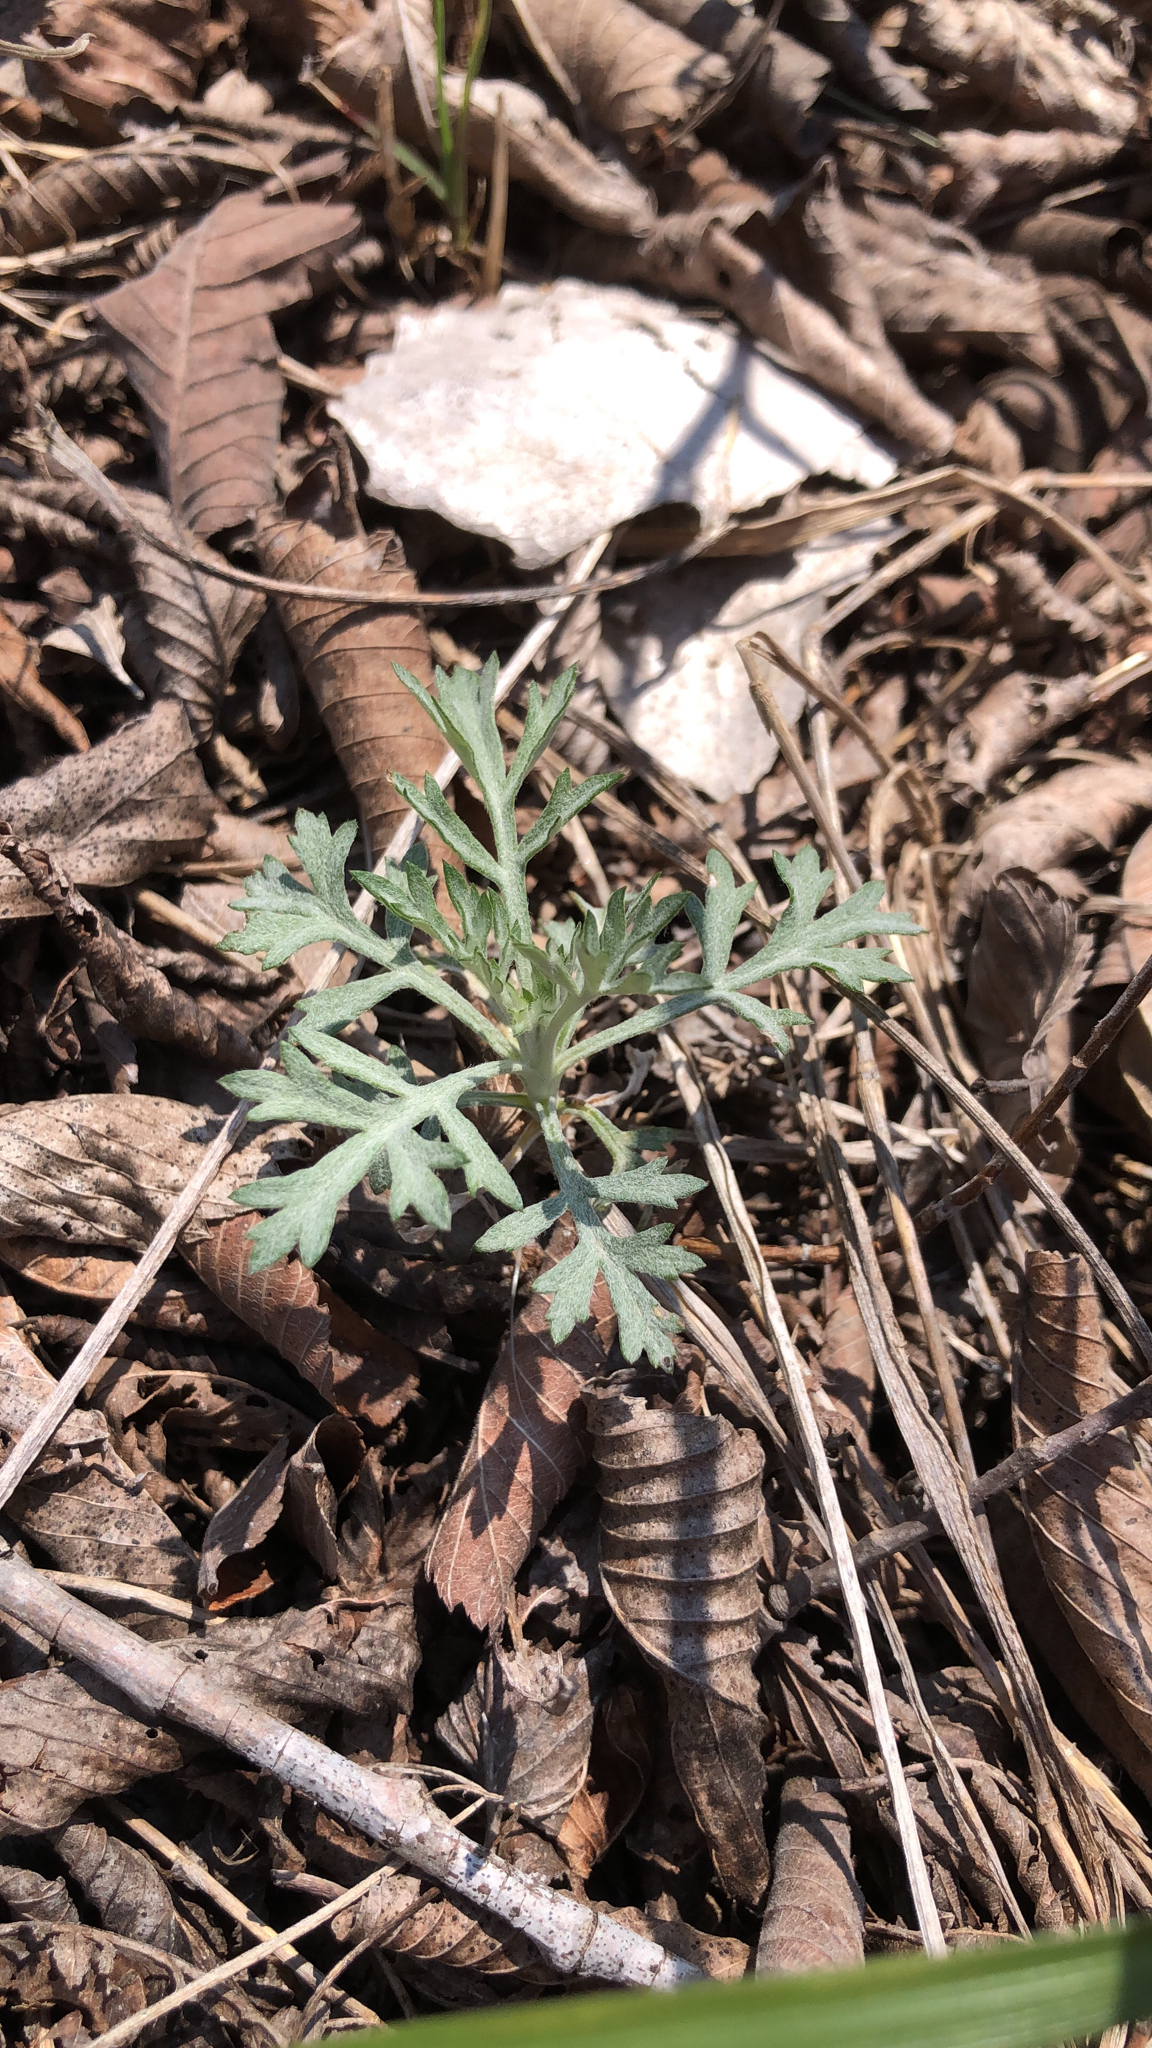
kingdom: Plantae
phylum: Tracheophyta
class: Magnoliopsida
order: Asterales
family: Asteraceae
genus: Artemisia
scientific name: Artemisia ludoviciana
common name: Western mugwort
